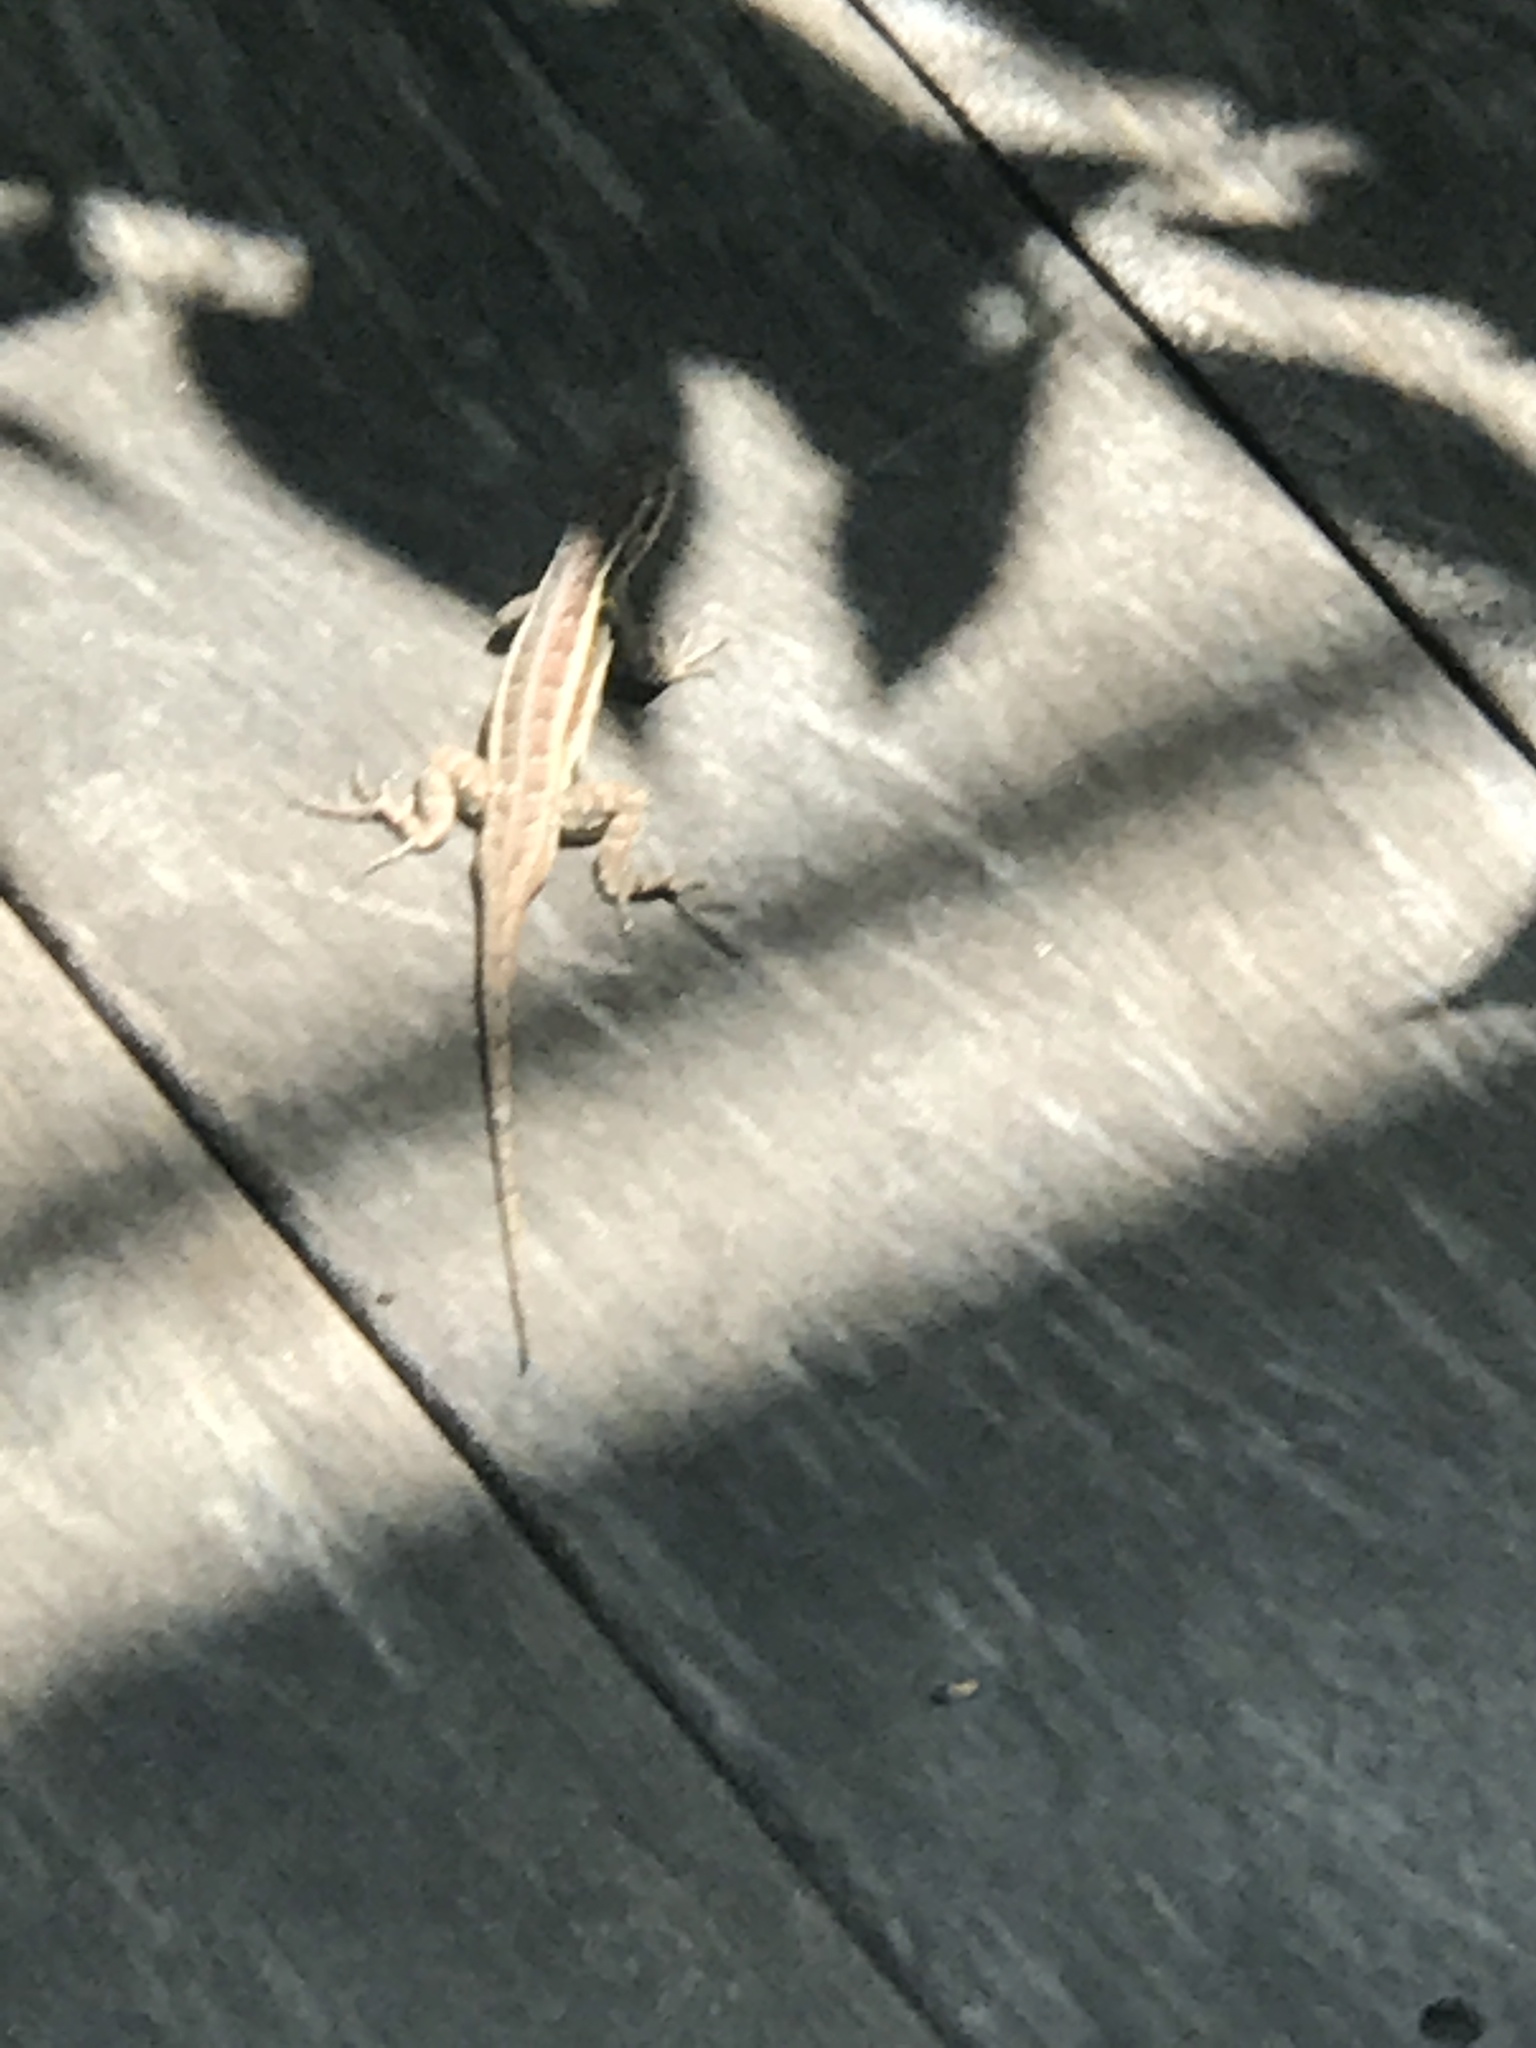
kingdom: Animalia
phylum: Chordata
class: Squamata
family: Phrynosomatidae
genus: Sceloporus
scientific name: Sceloporus variabilis
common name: Rosebelly lizard
